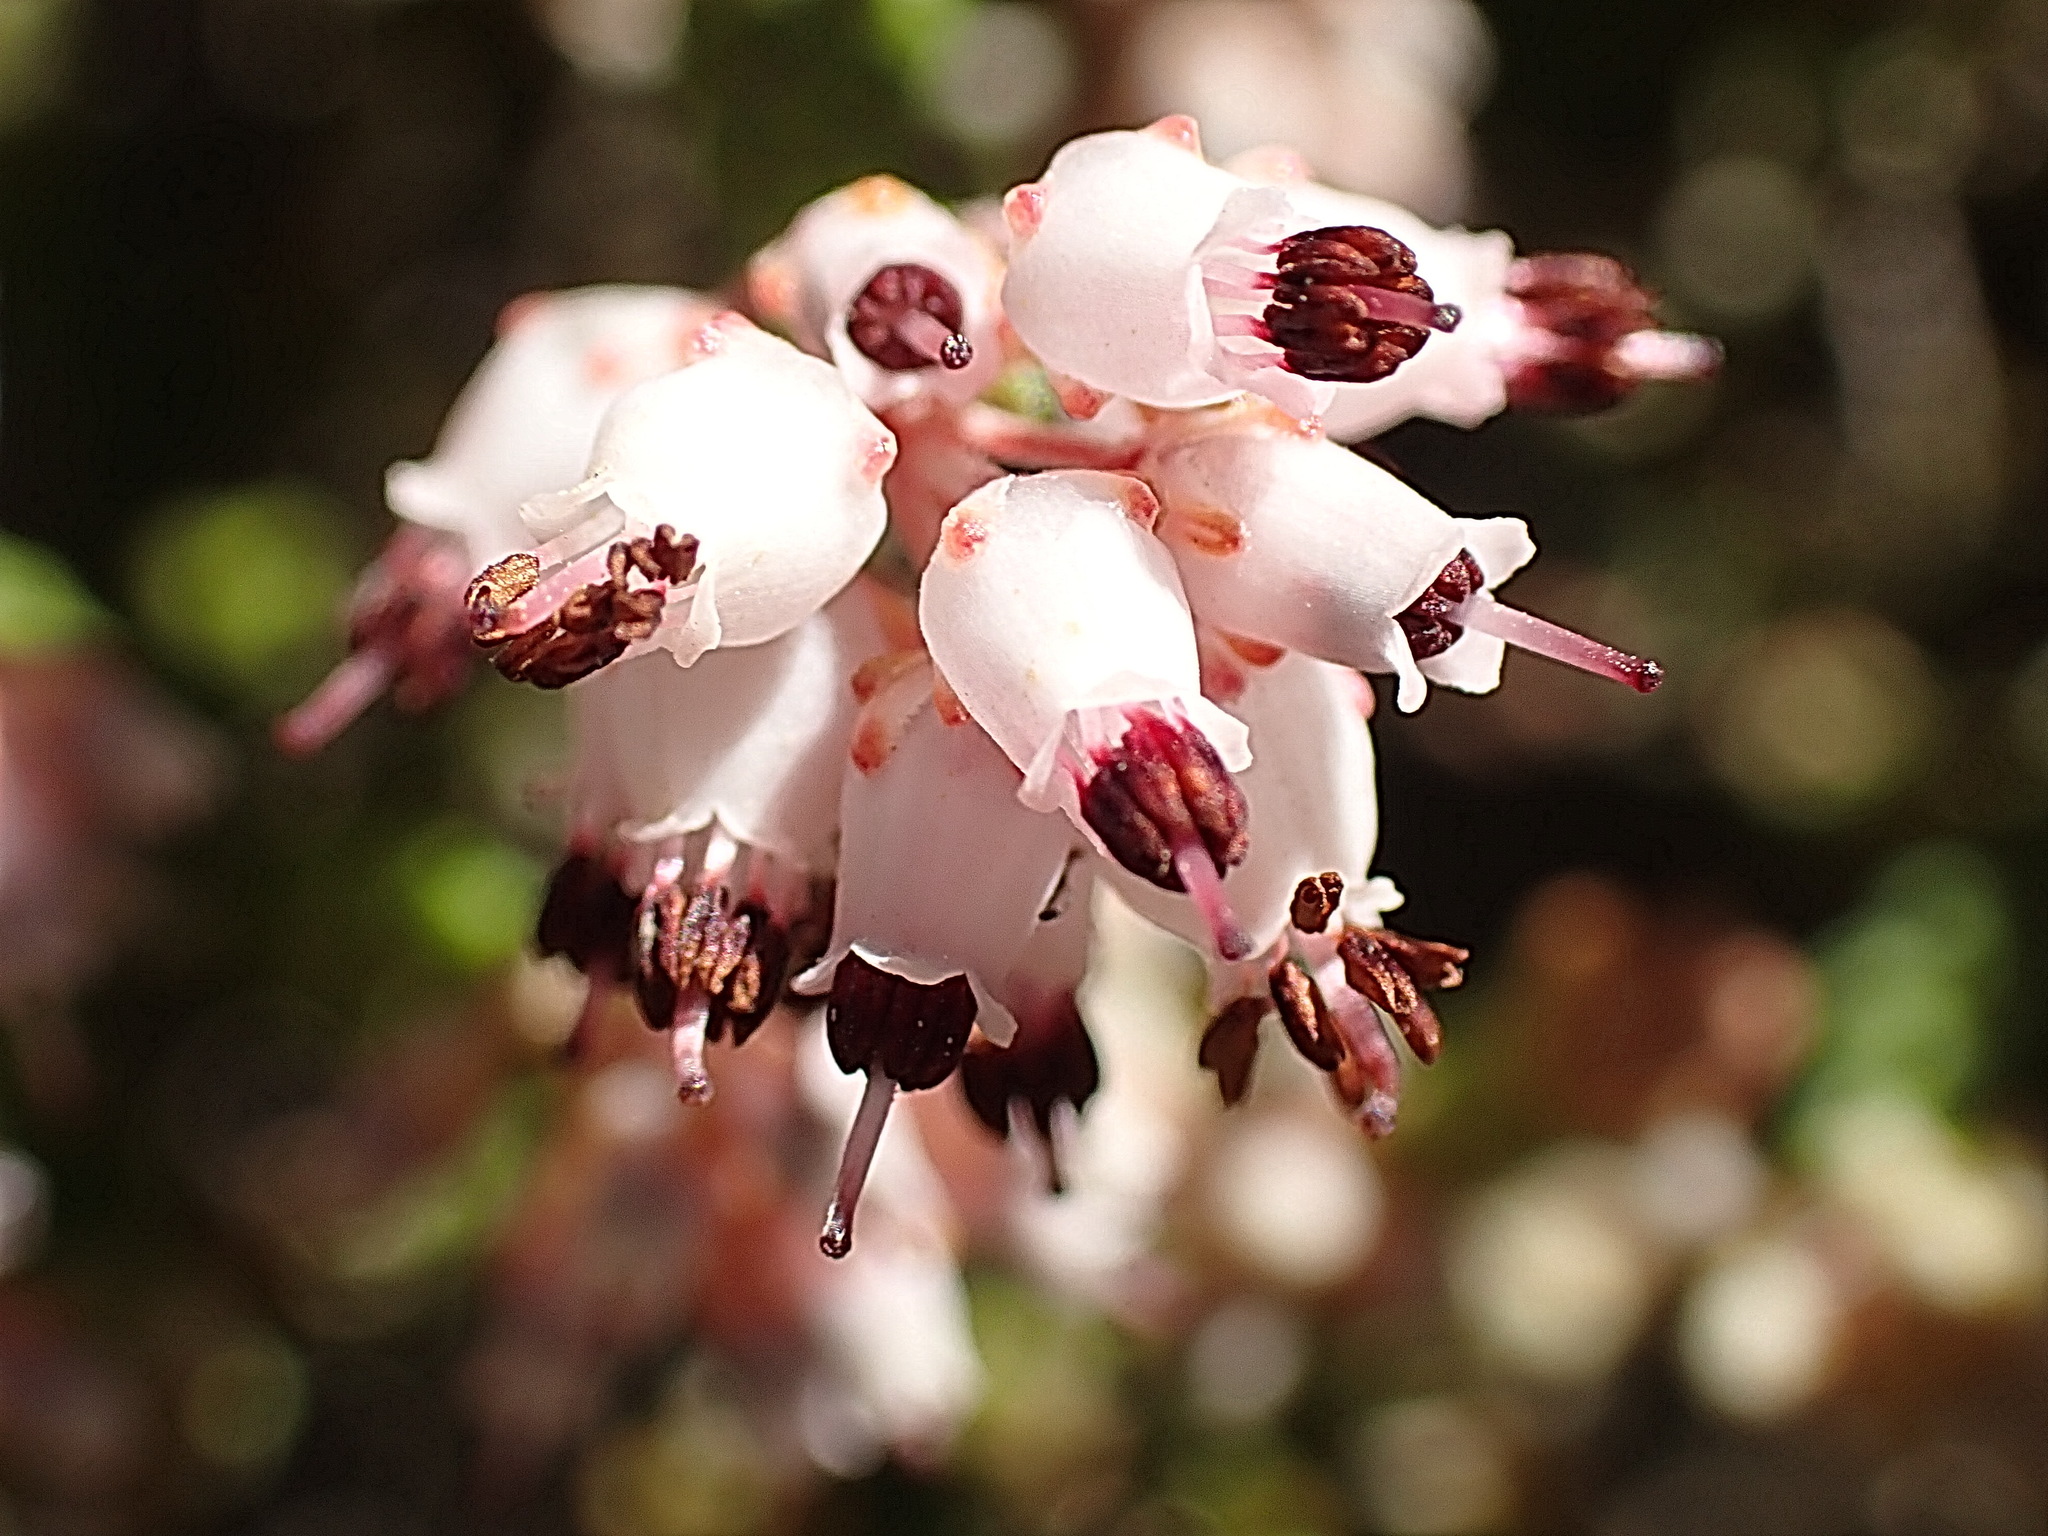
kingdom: Plantae
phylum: Tracheophyta
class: Magnoliopsida
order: Ericales
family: Ericaceae
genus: Erica
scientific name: Erica petraea
